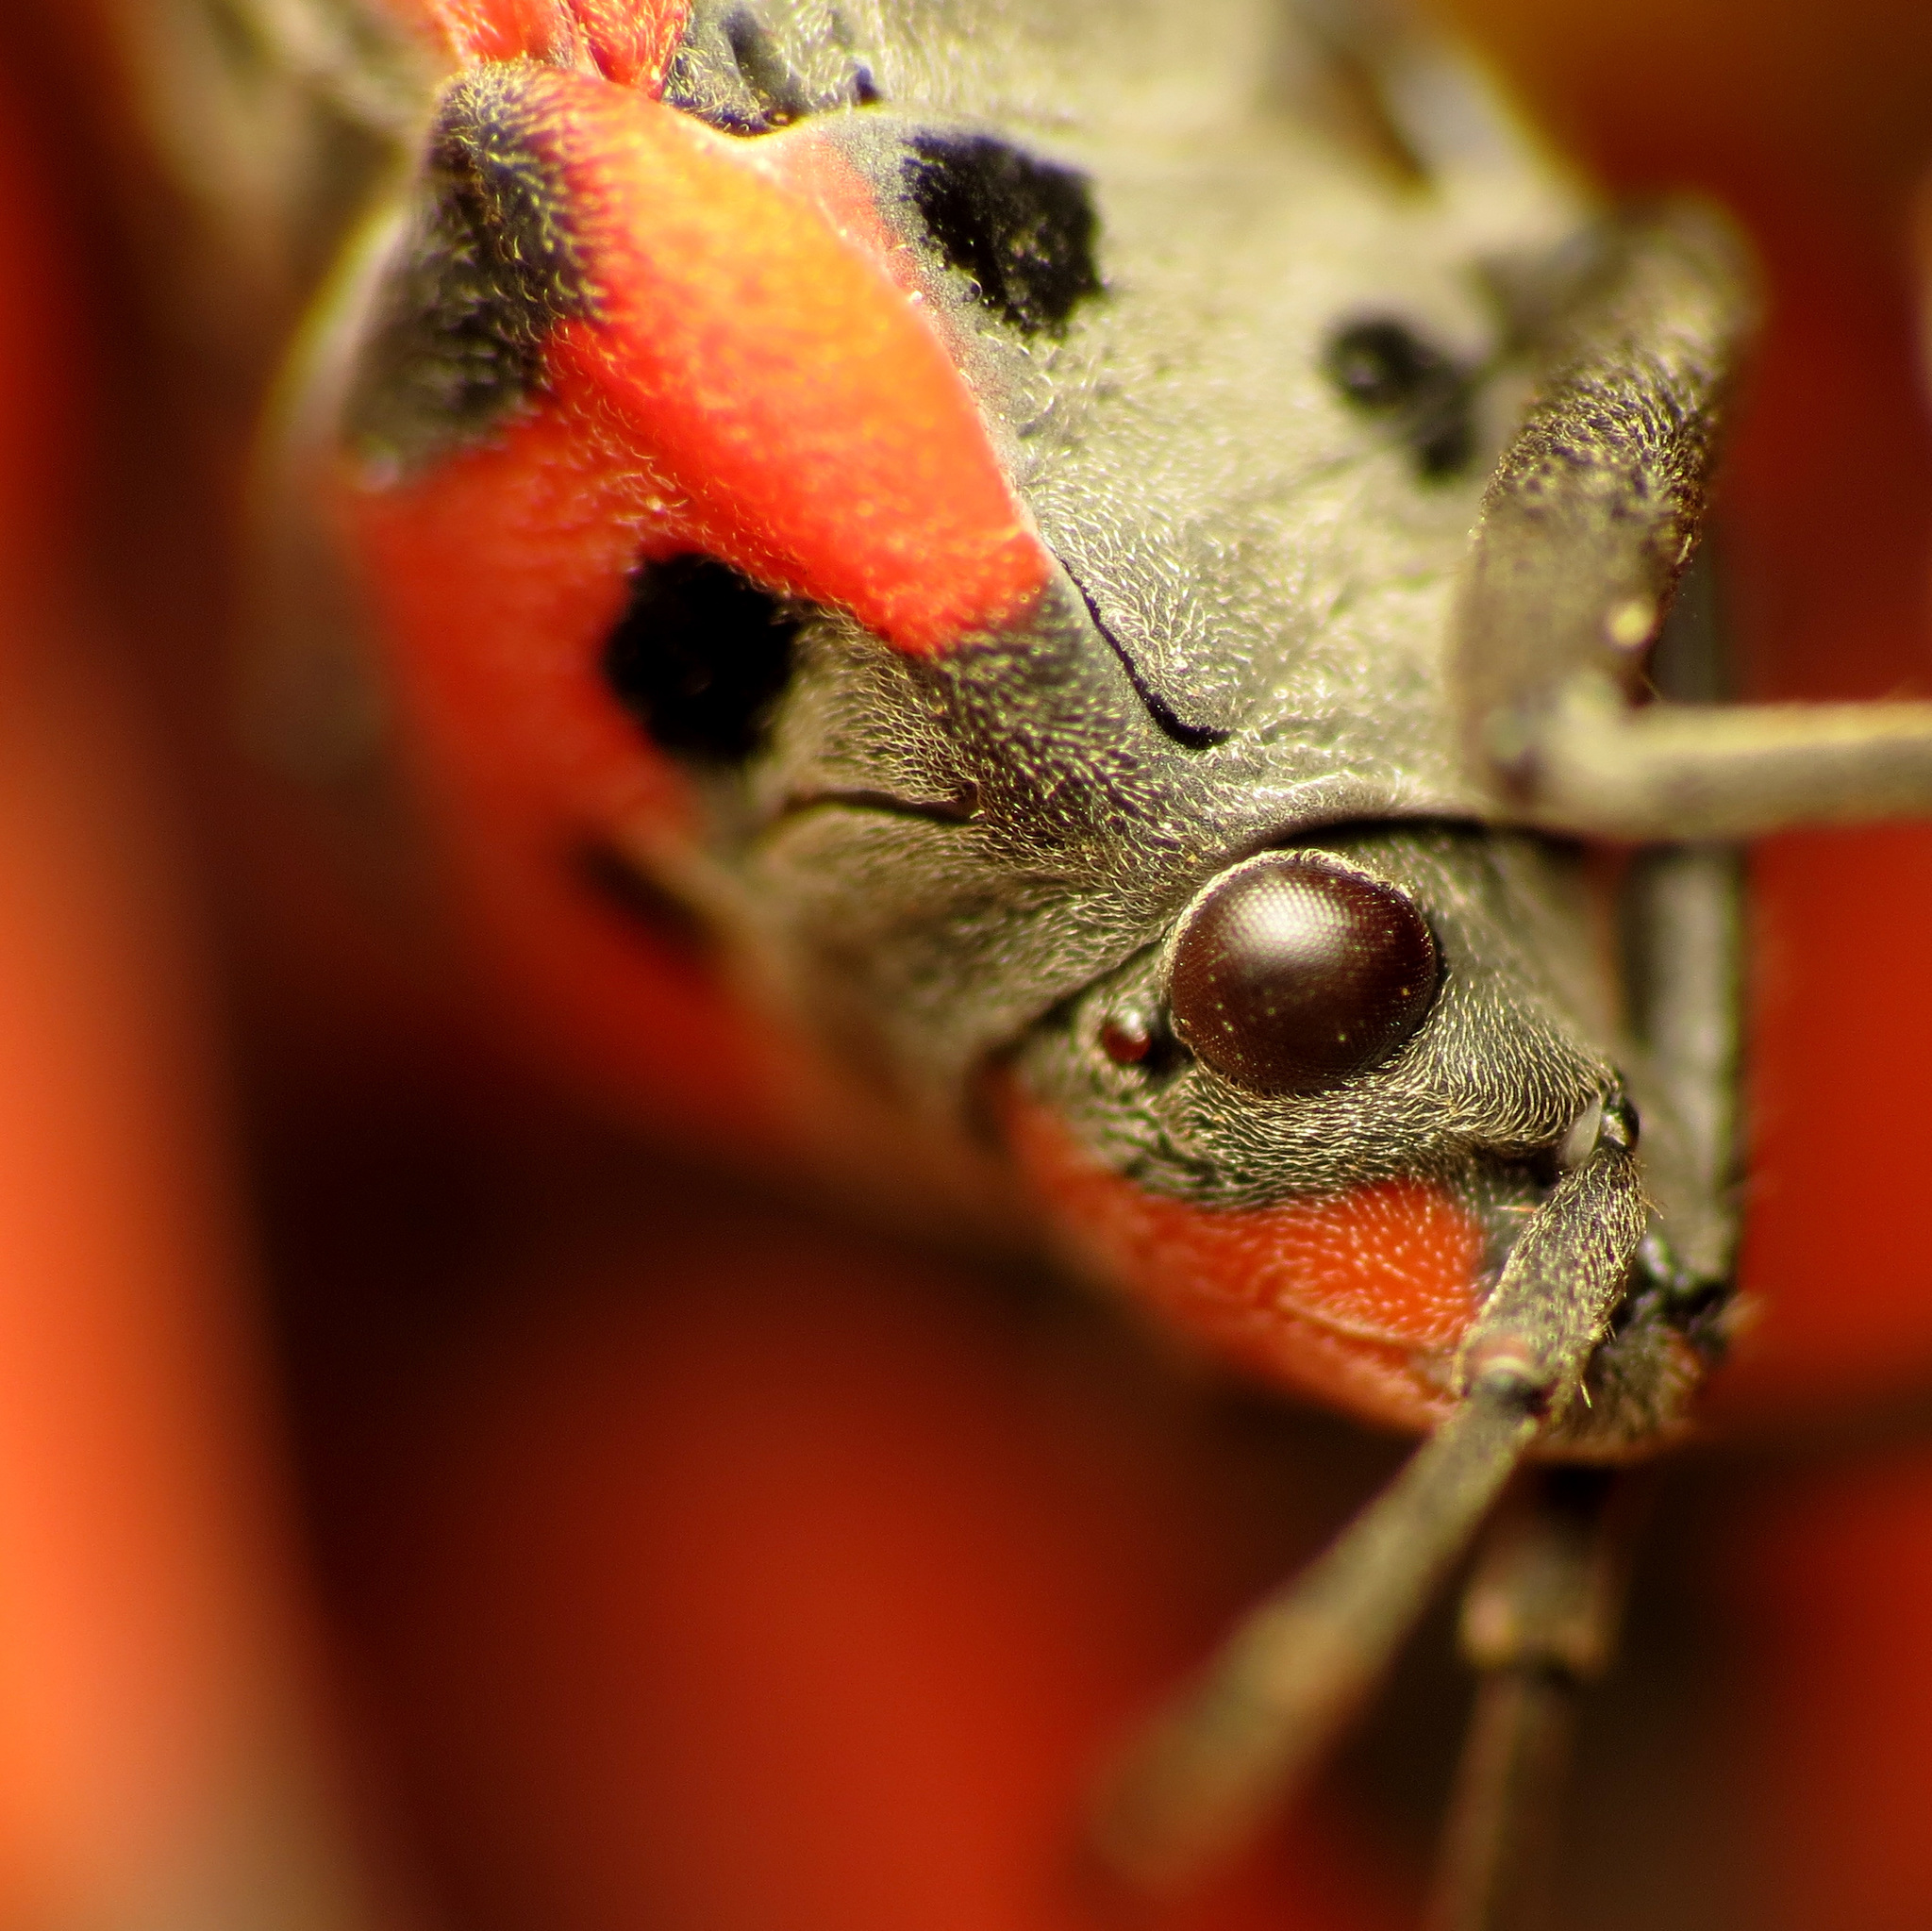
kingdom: Animalia
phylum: Arthropoda
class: Insecta
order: Hemiptera
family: Lygaeidae
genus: Lygaeus
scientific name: Lygaeus equestris
